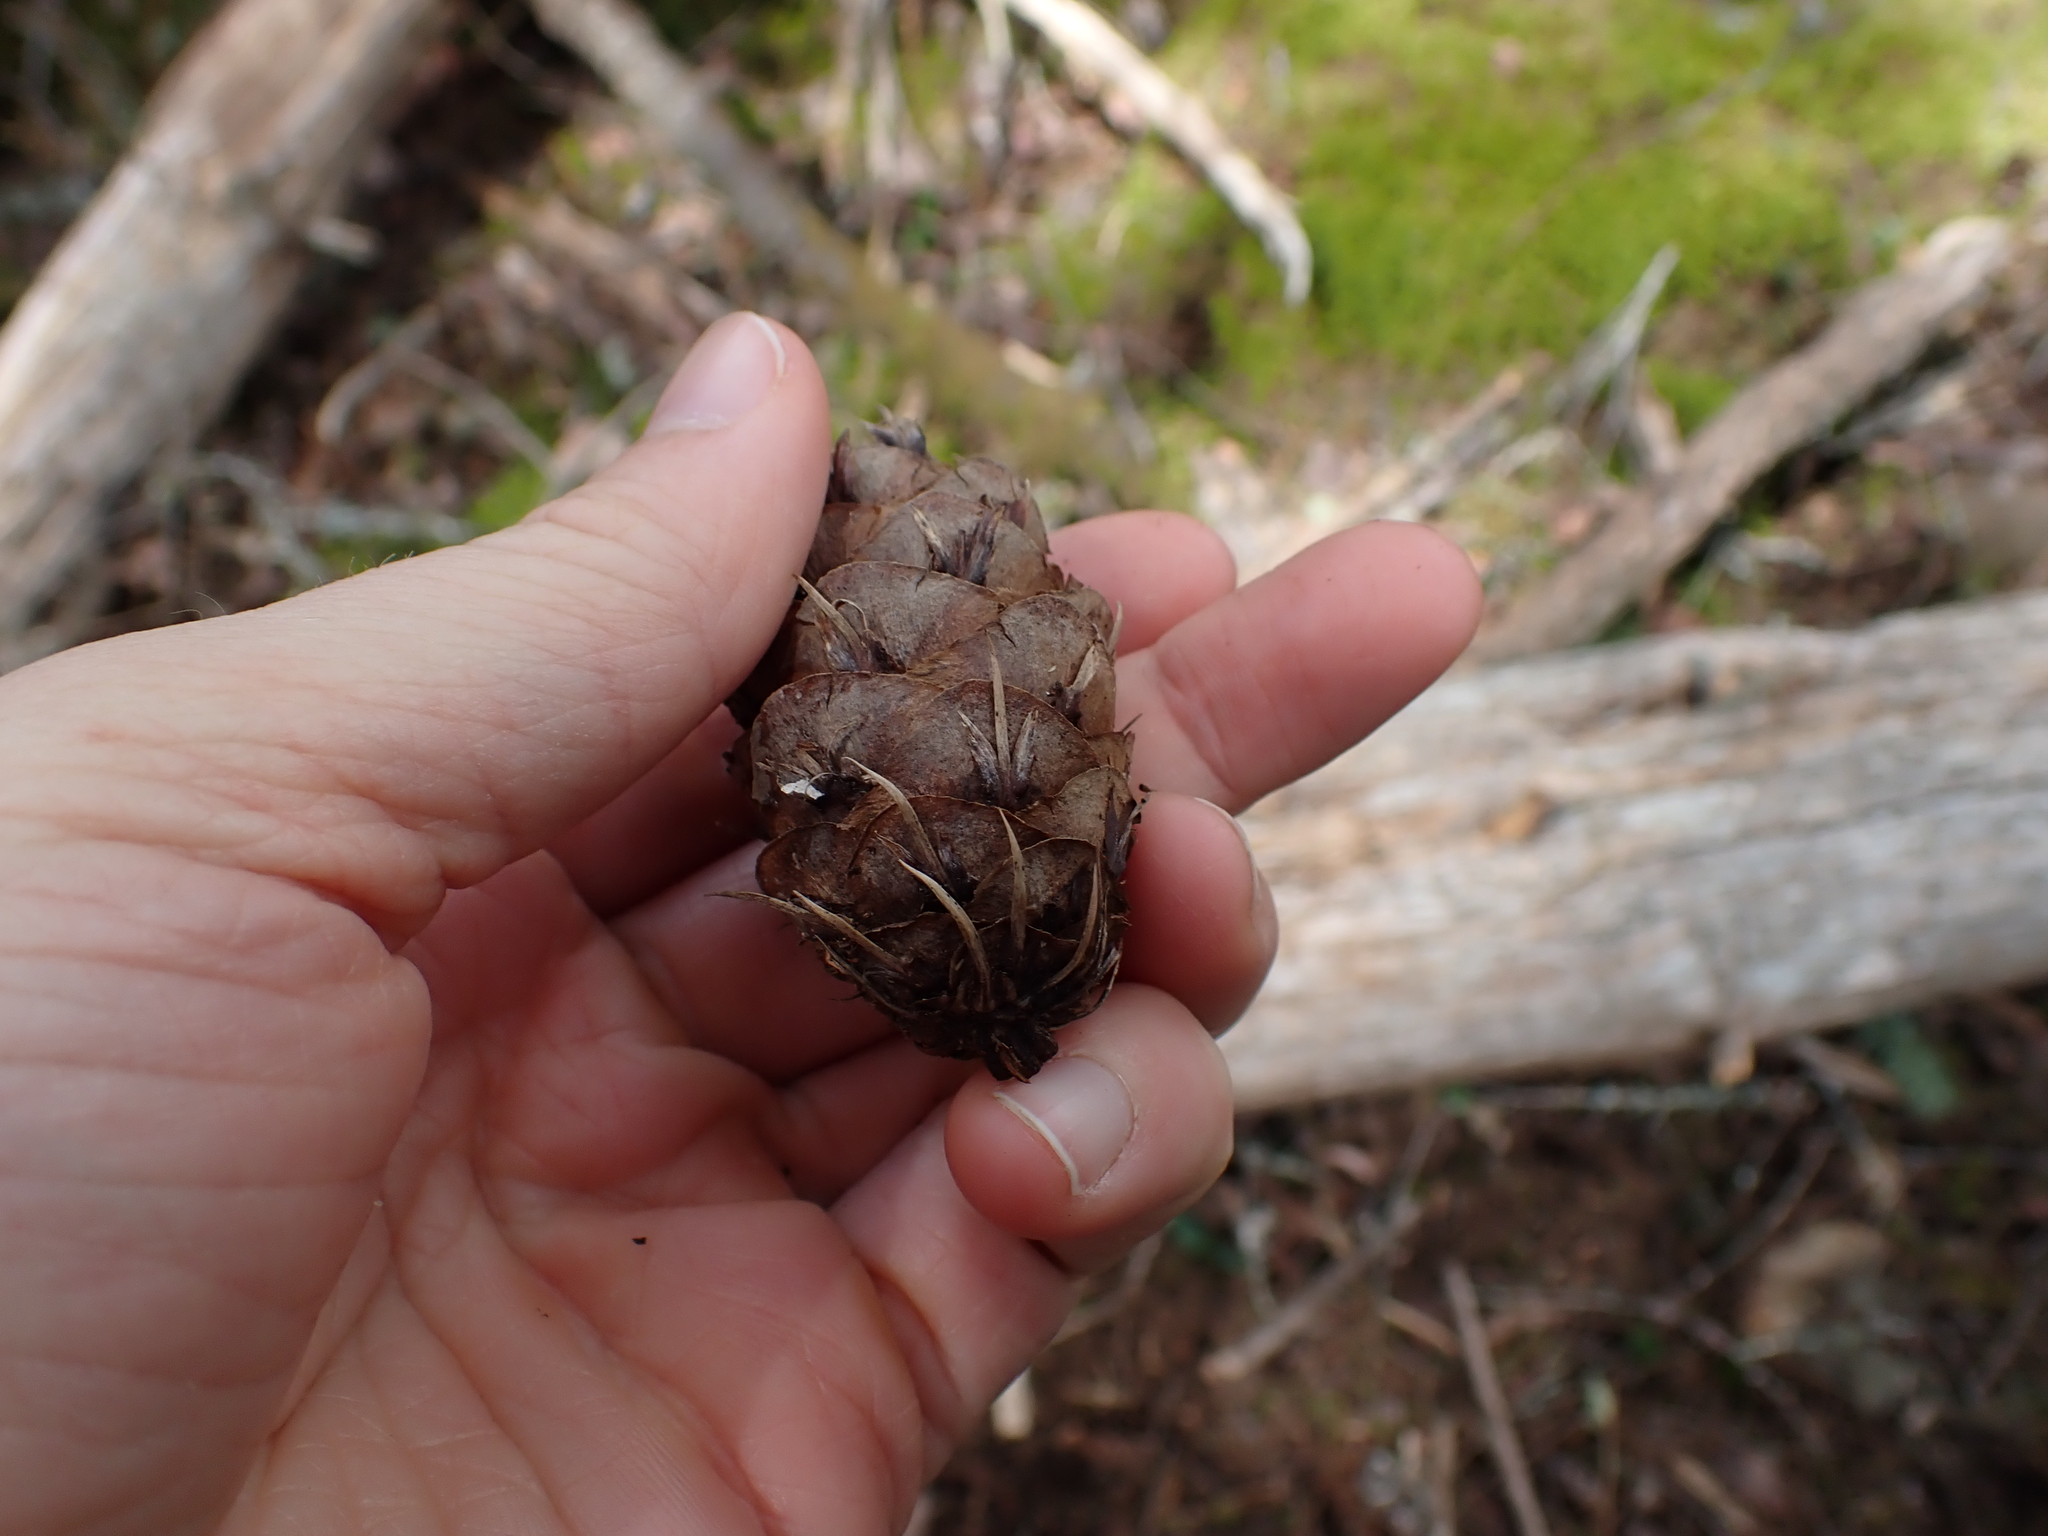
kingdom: Plantae
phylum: Tracheophyta
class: Pinopsida
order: Pinales
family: Pinaceae
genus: Pseudotsuga
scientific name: Pseudotsuga menziesii
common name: Douglas fir
